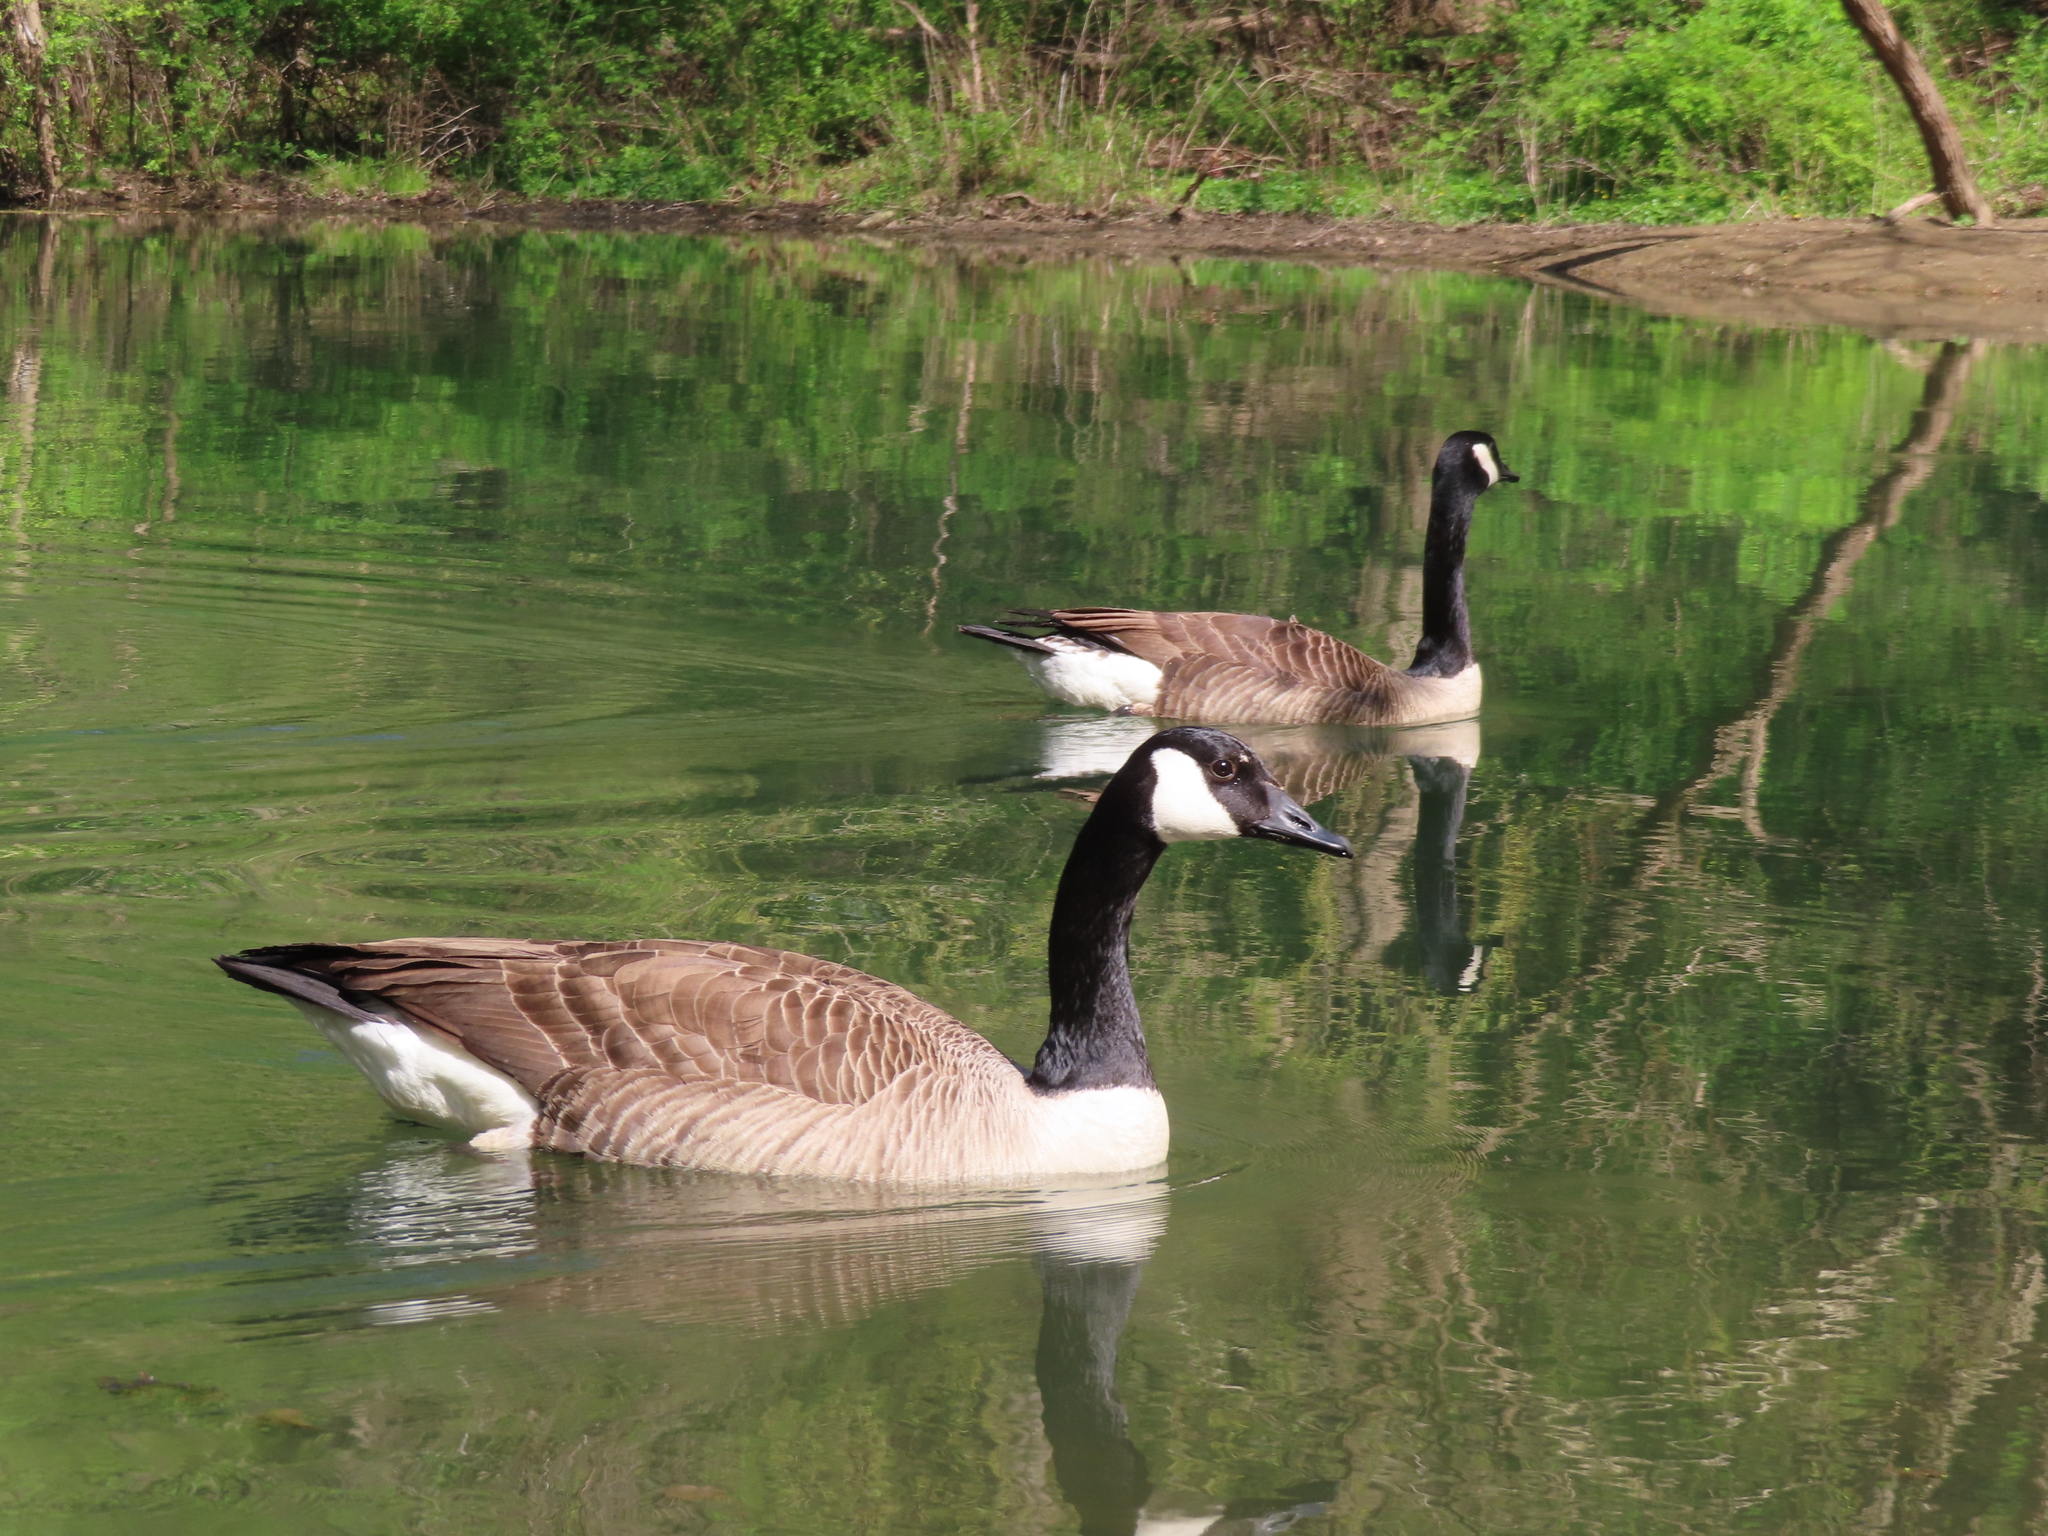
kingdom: Animalia
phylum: Chordata
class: Aves
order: Anseriformes
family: Anatidae
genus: Branta
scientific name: Branta canadensis
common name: Canada goose
